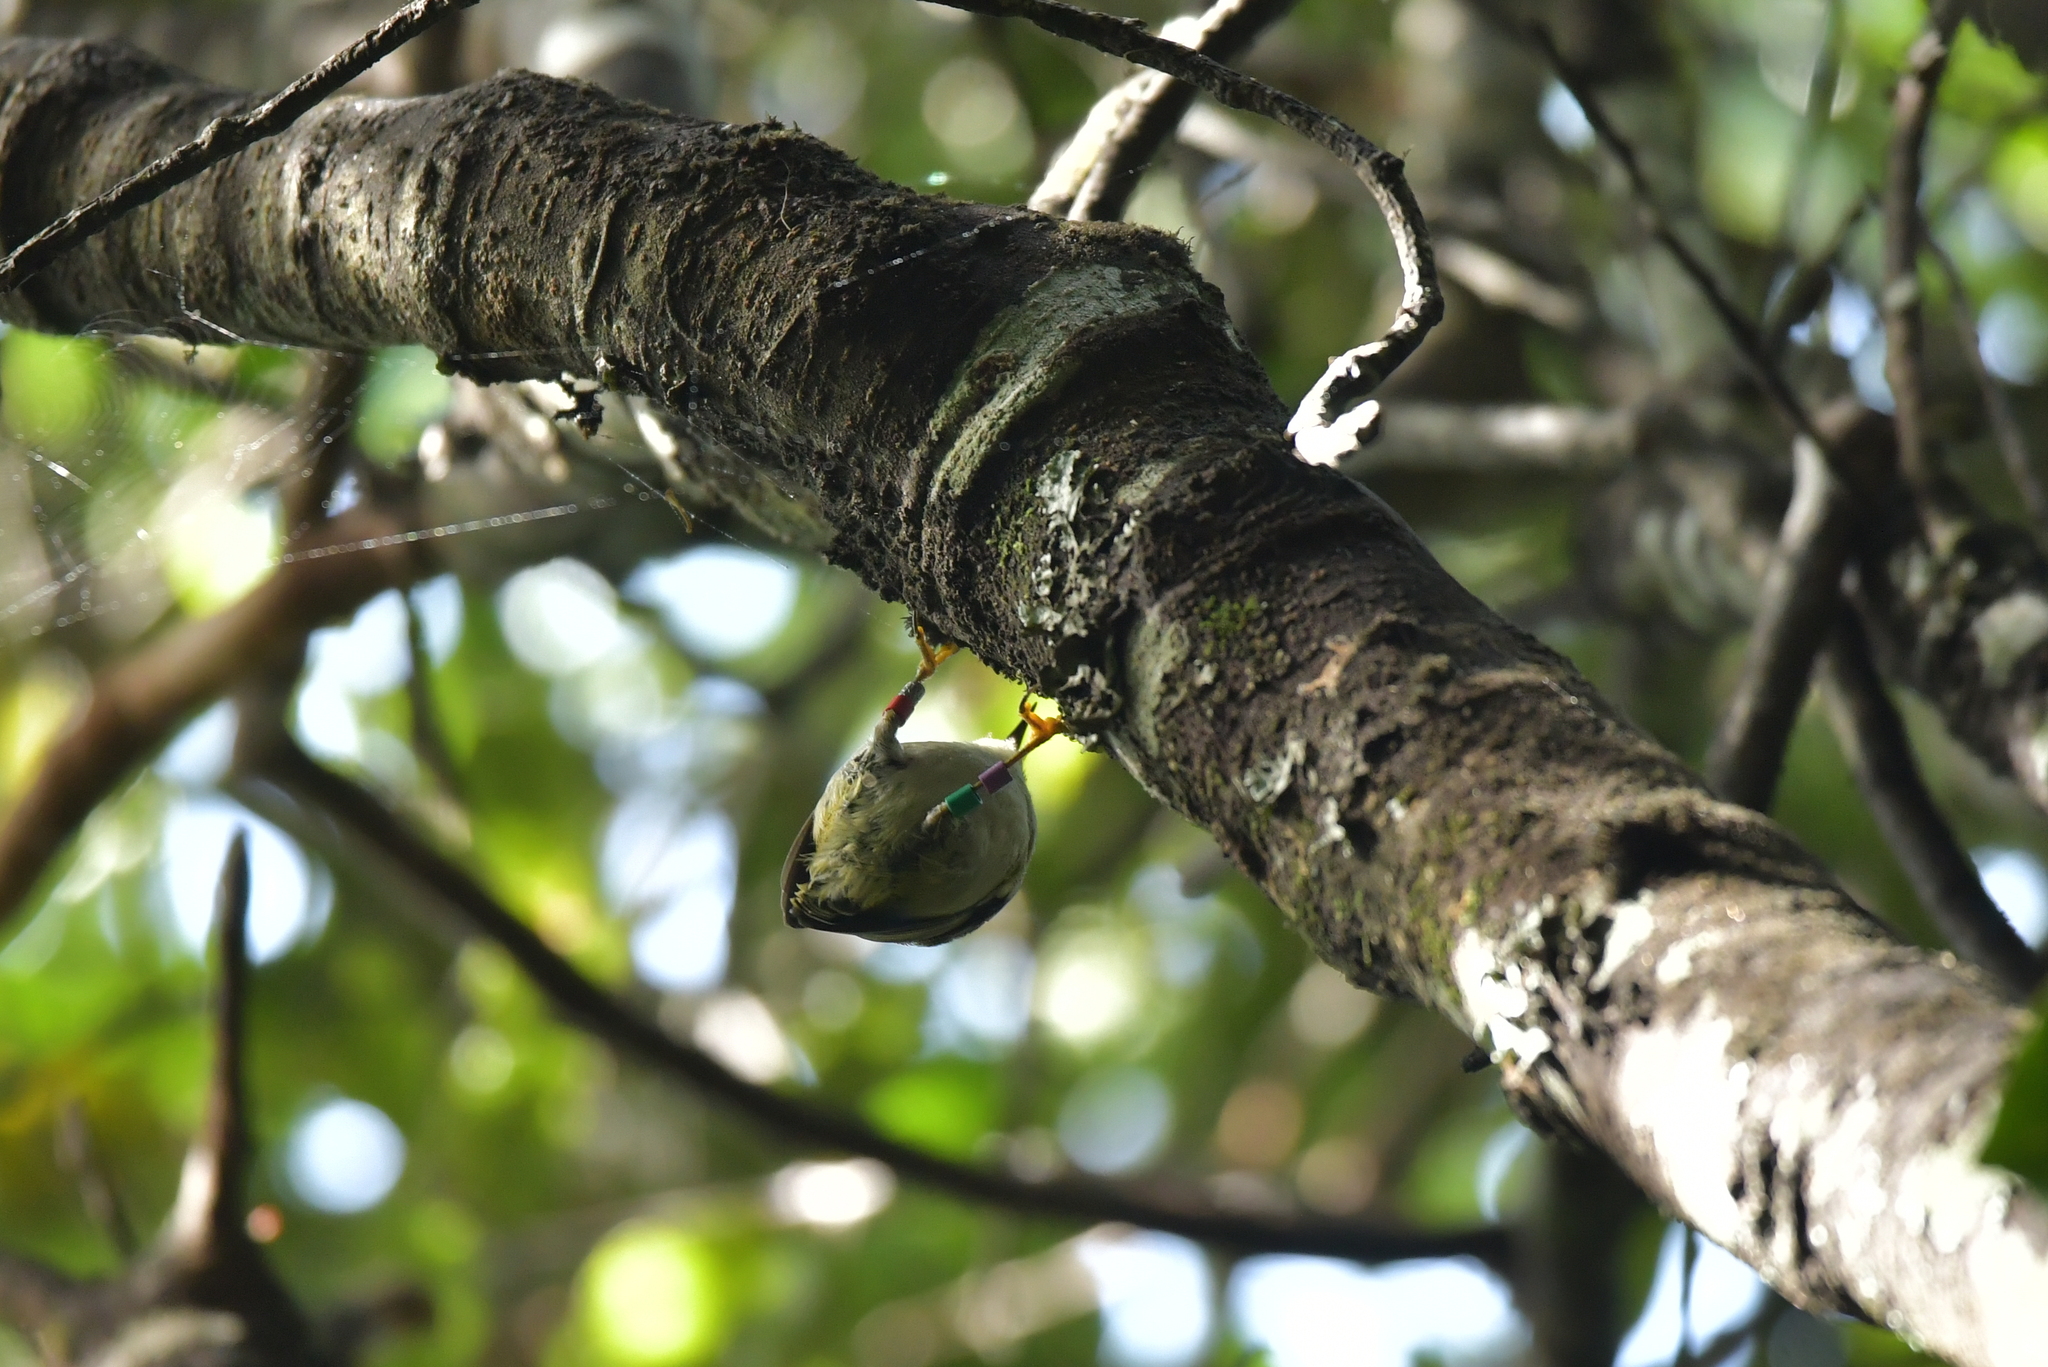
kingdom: Animalia
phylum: Chordata
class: Aves
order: Passeriformes
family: Acanthisittidae
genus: Acanthisitta
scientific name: Acanthisitta chloris
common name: Rifleman
